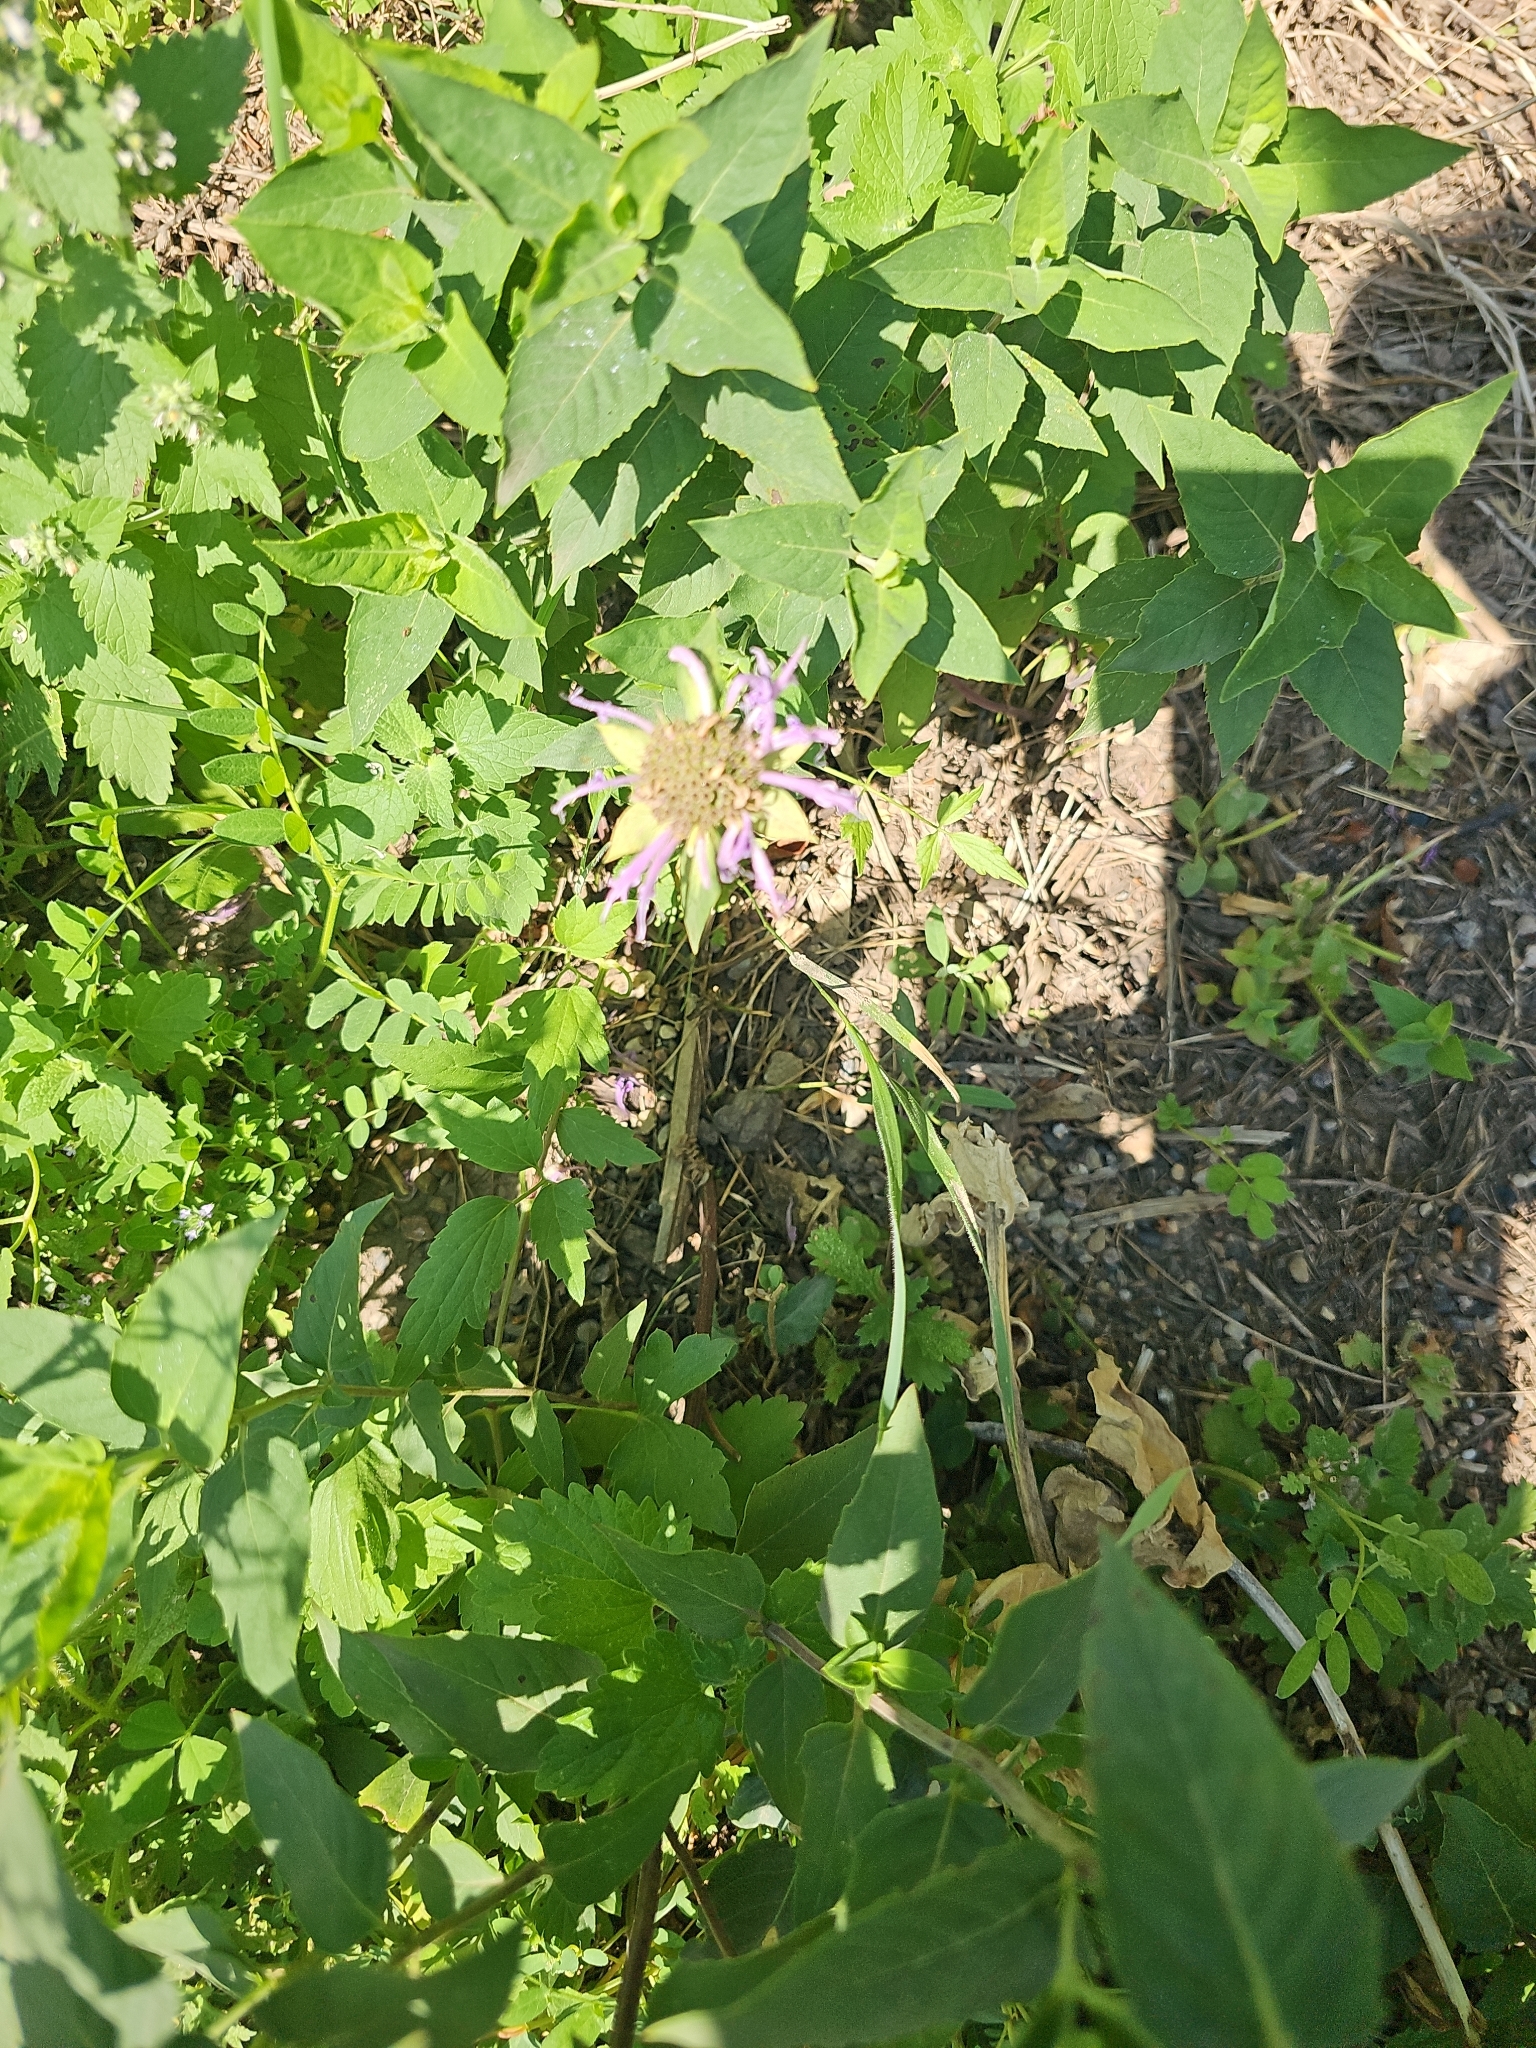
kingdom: Plantae
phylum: Tracheophyta
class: Magnoliopsida
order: Lamiales
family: Lamiaceae
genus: Monarda
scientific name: Monarda fistulosa
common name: Purple beebalm
